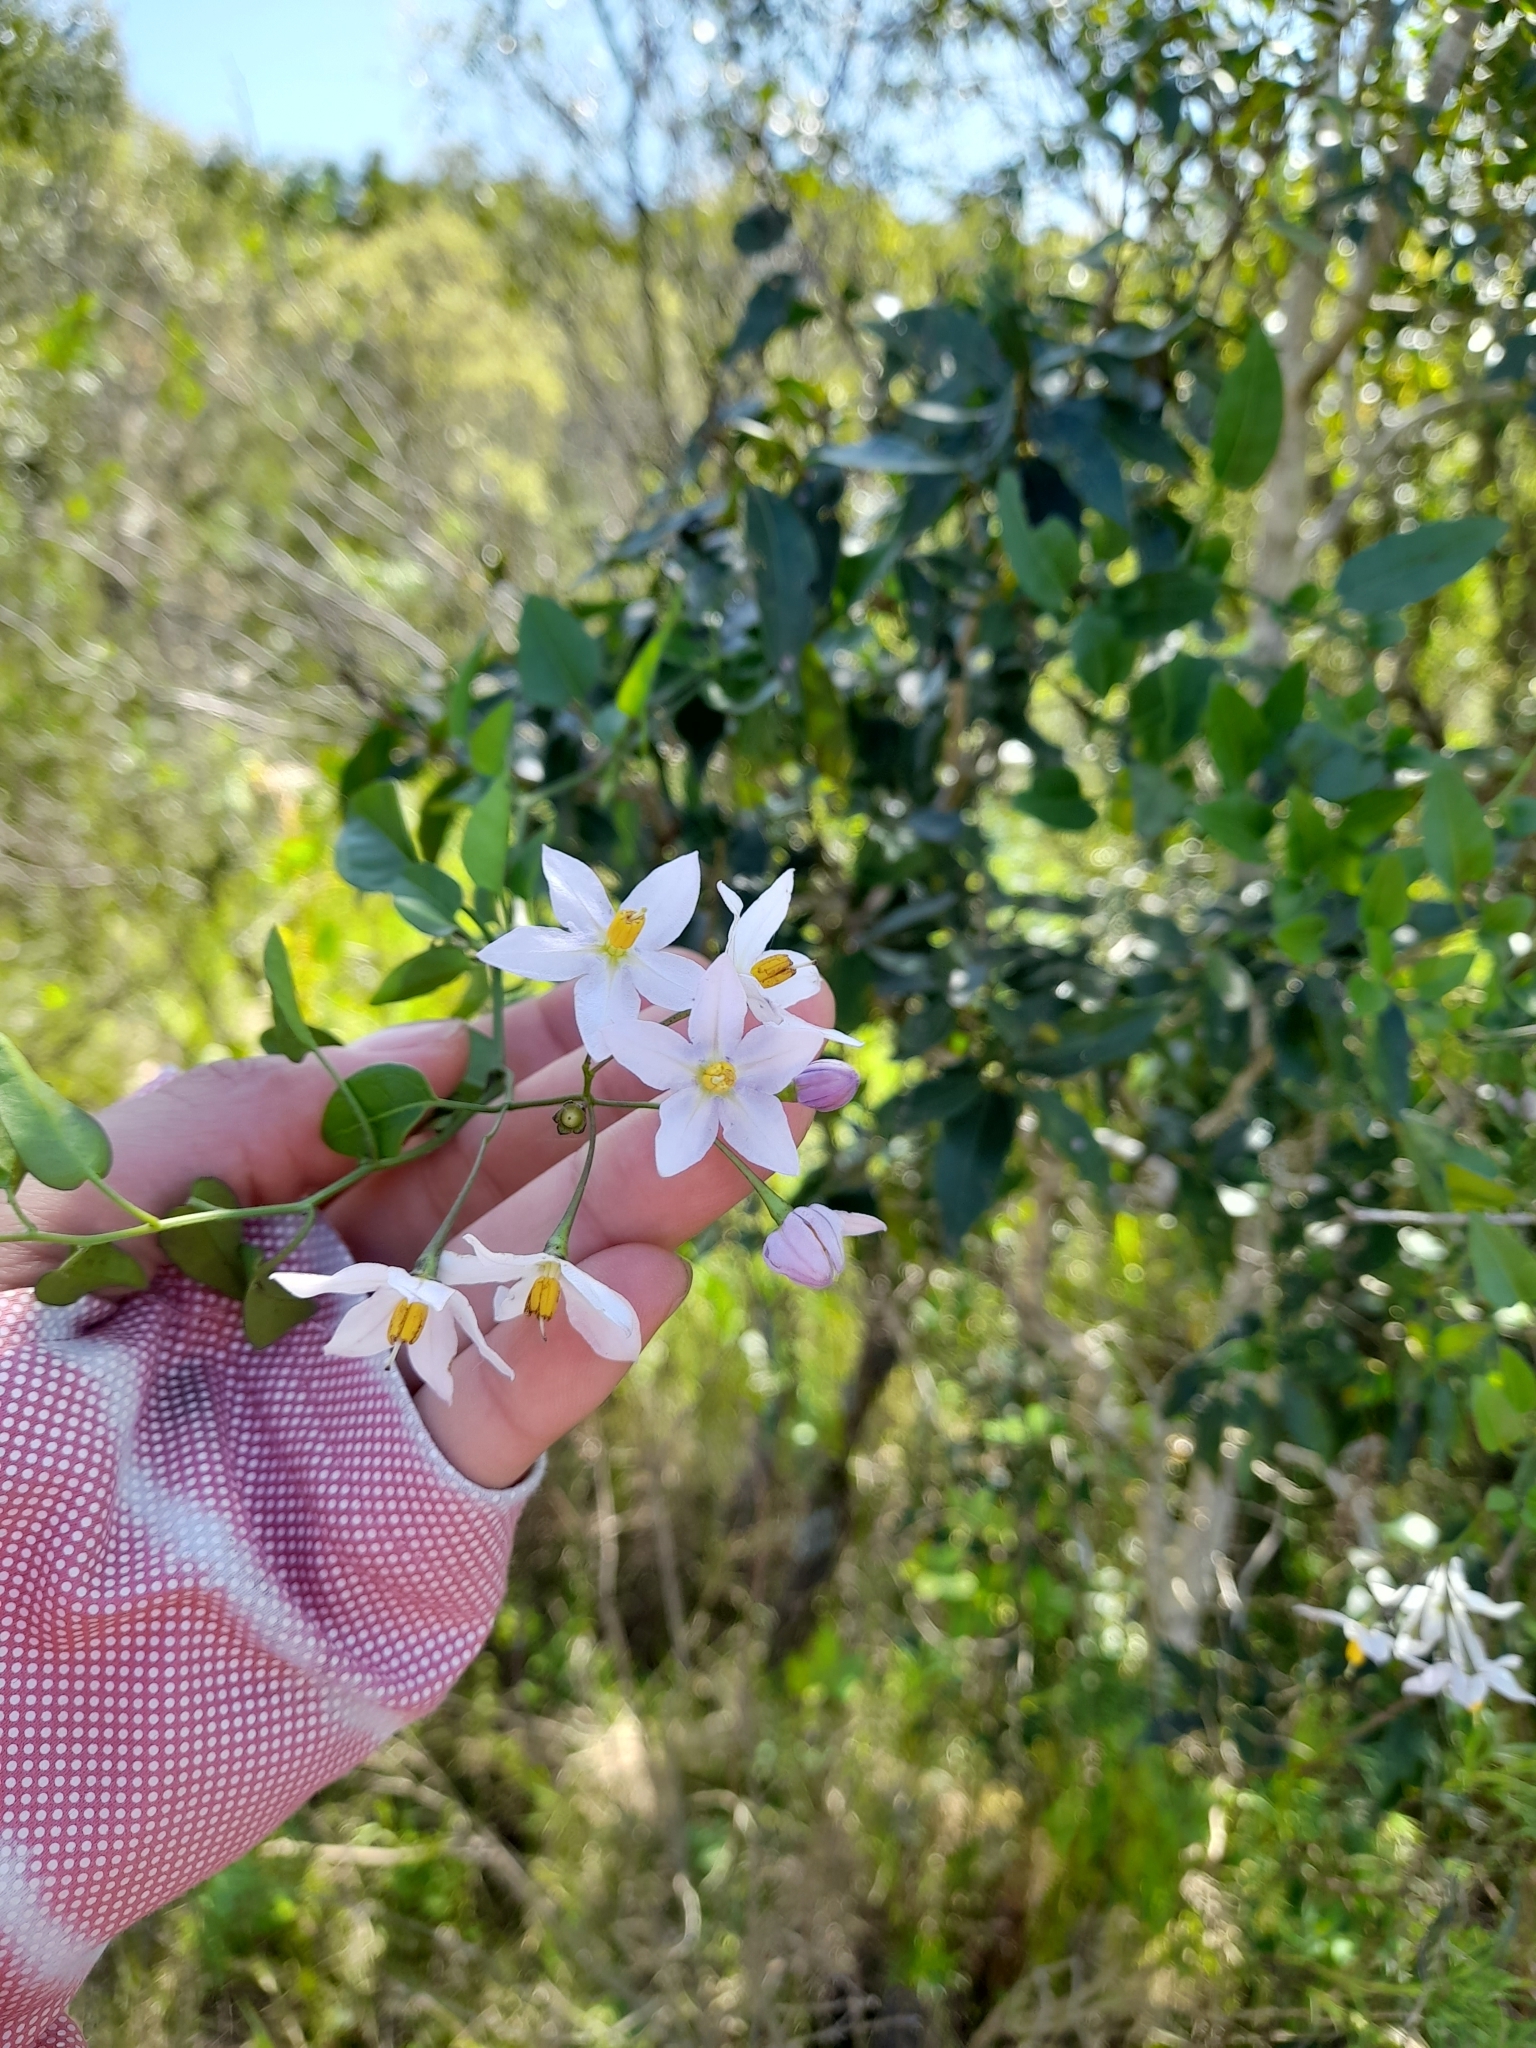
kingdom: Plantae
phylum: Tracheophyta
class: Magnoliopsida
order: Solanales
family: Solanaceae
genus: Solanum
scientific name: Solanum laxum
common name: Nightshade
